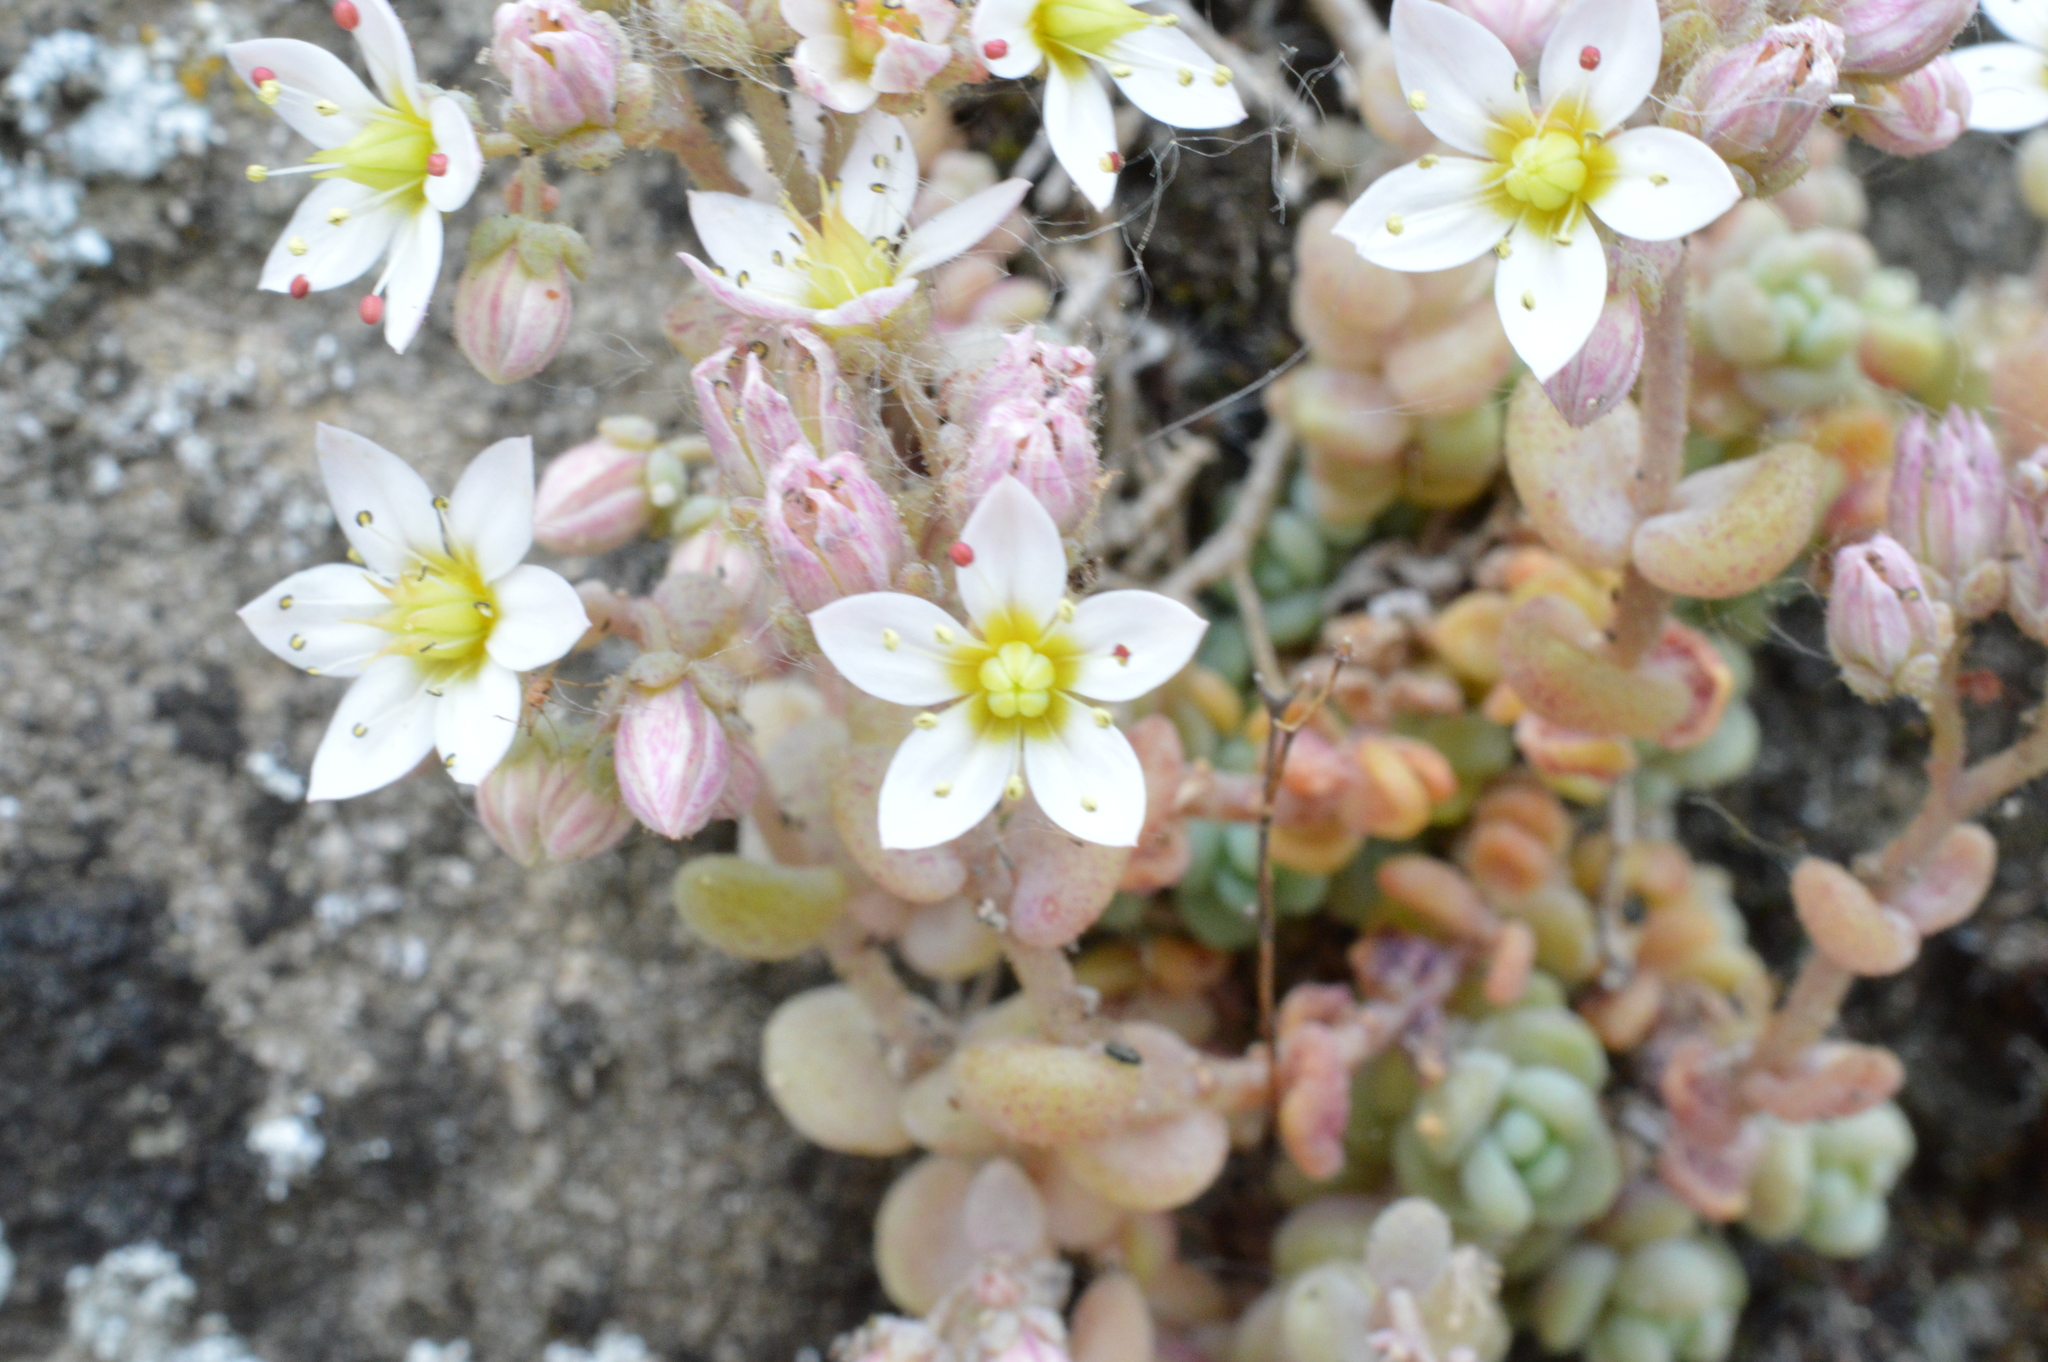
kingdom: Plantae
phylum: Tracheophyta
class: Magnoliopsida
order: Saxifragales
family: Crassulaceae
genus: Sedum
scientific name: Sedum dasyphyllum
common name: Thick-leaf stonecrop
